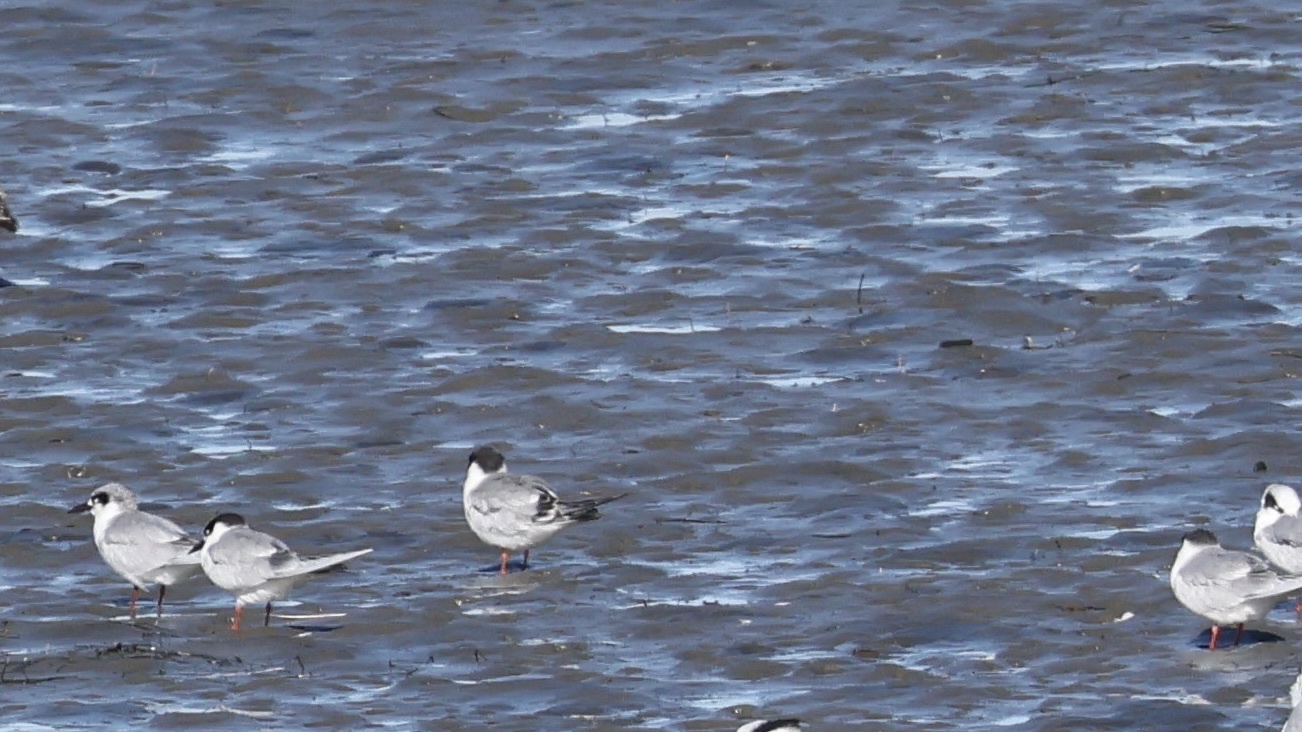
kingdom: Animalia
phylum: Chordata
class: Aves
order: Charadriiformes
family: Laridae
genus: Sterna
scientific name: Sterna forsteri
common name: Forster's tern
